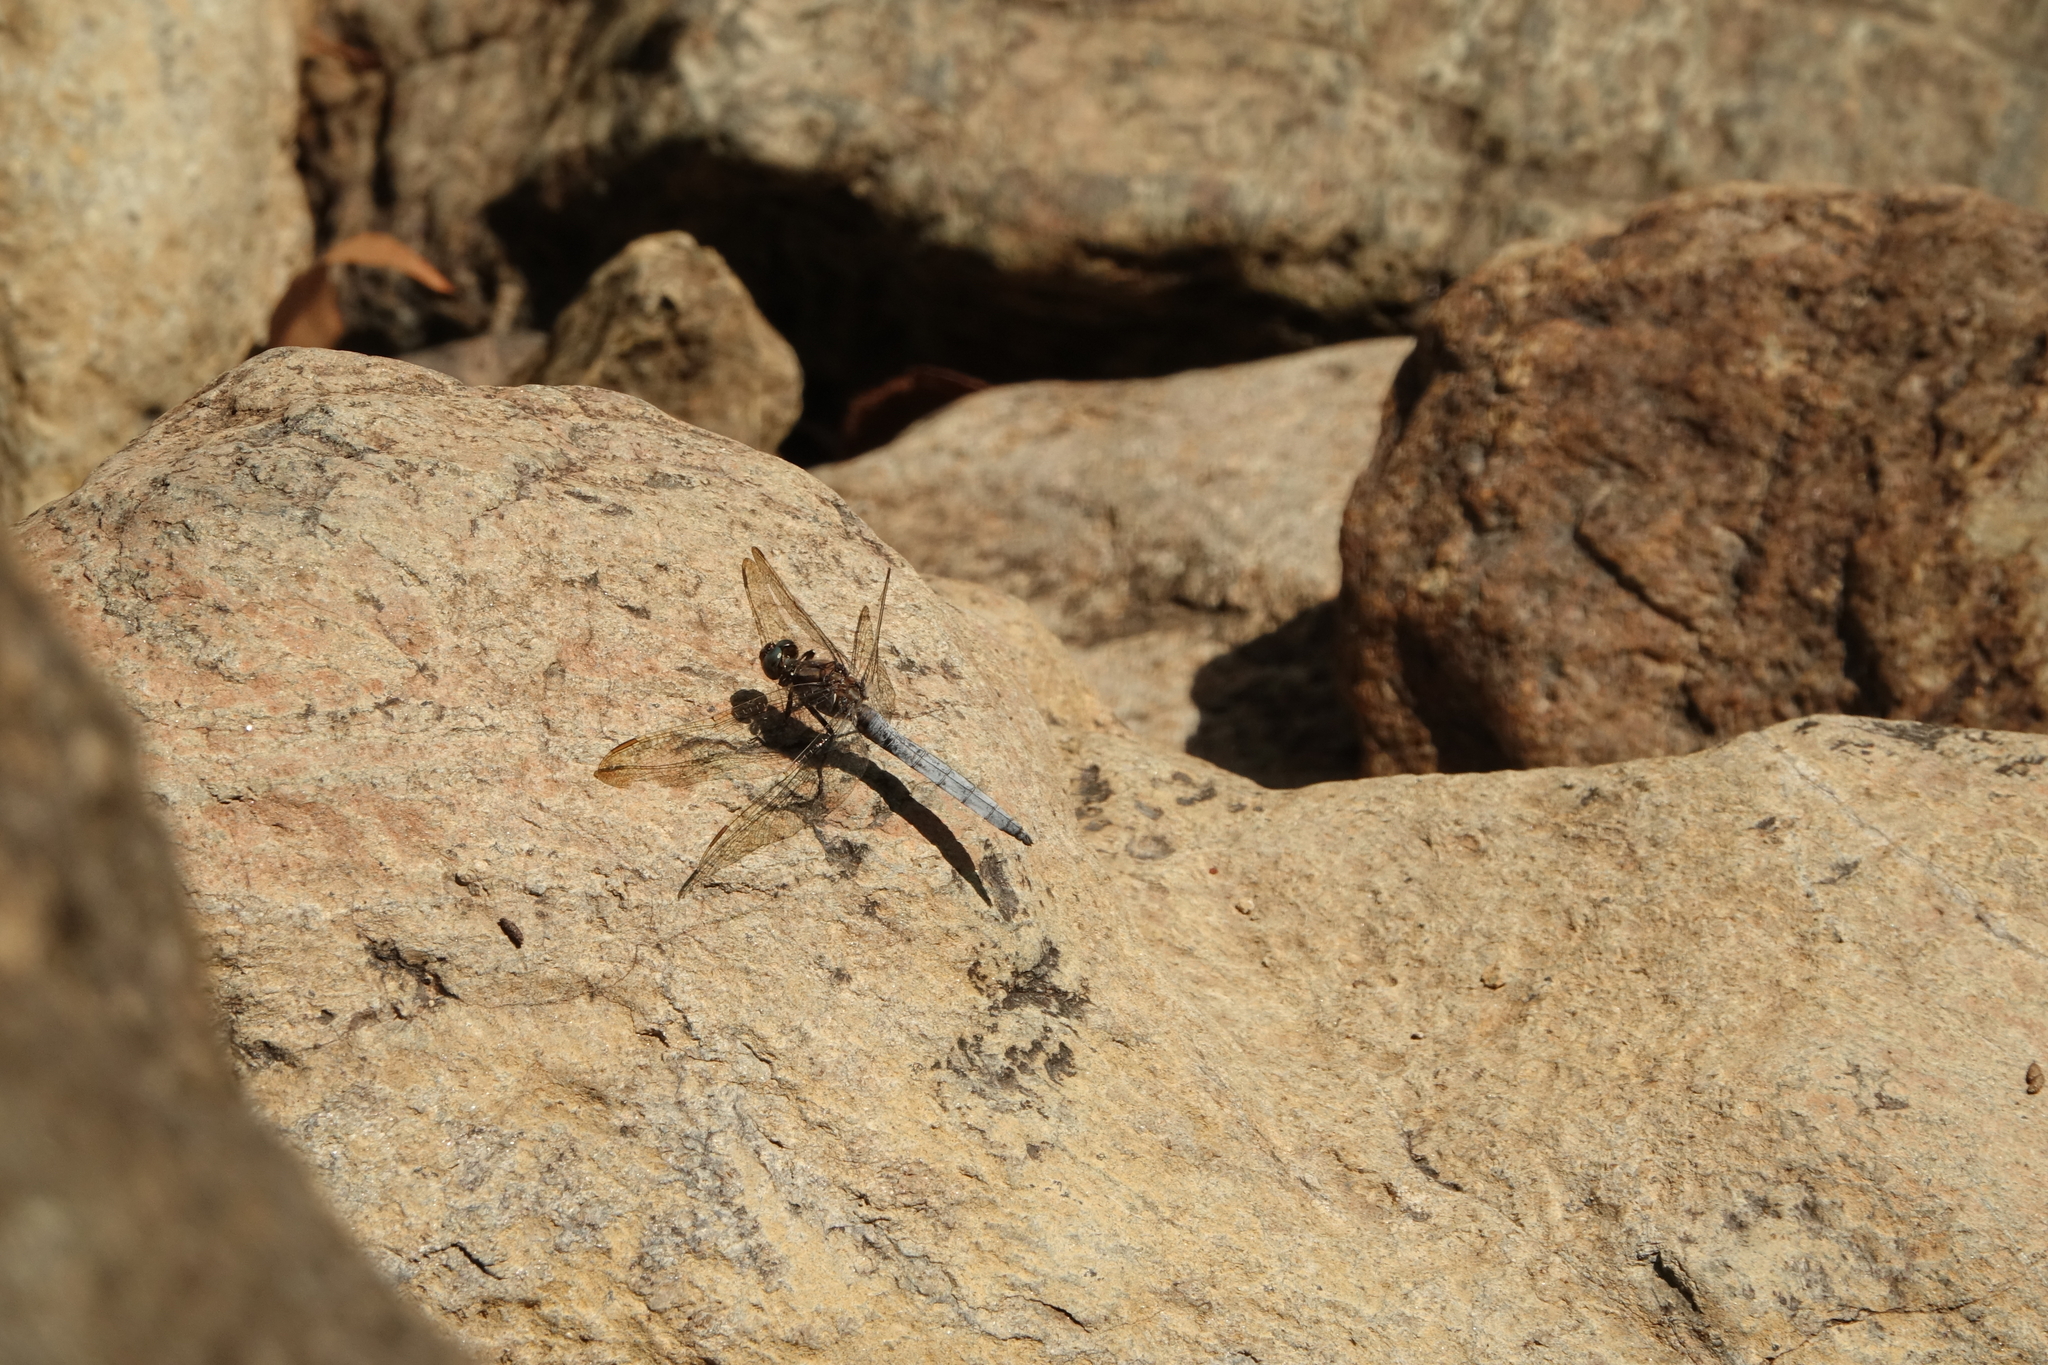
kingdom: Animalia
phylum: Arthropoda
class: Insecta
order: Odonata
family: Libellulidae
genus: Orthetrum
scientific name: Orthetrum coerulescens
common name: Keeled skimmer
